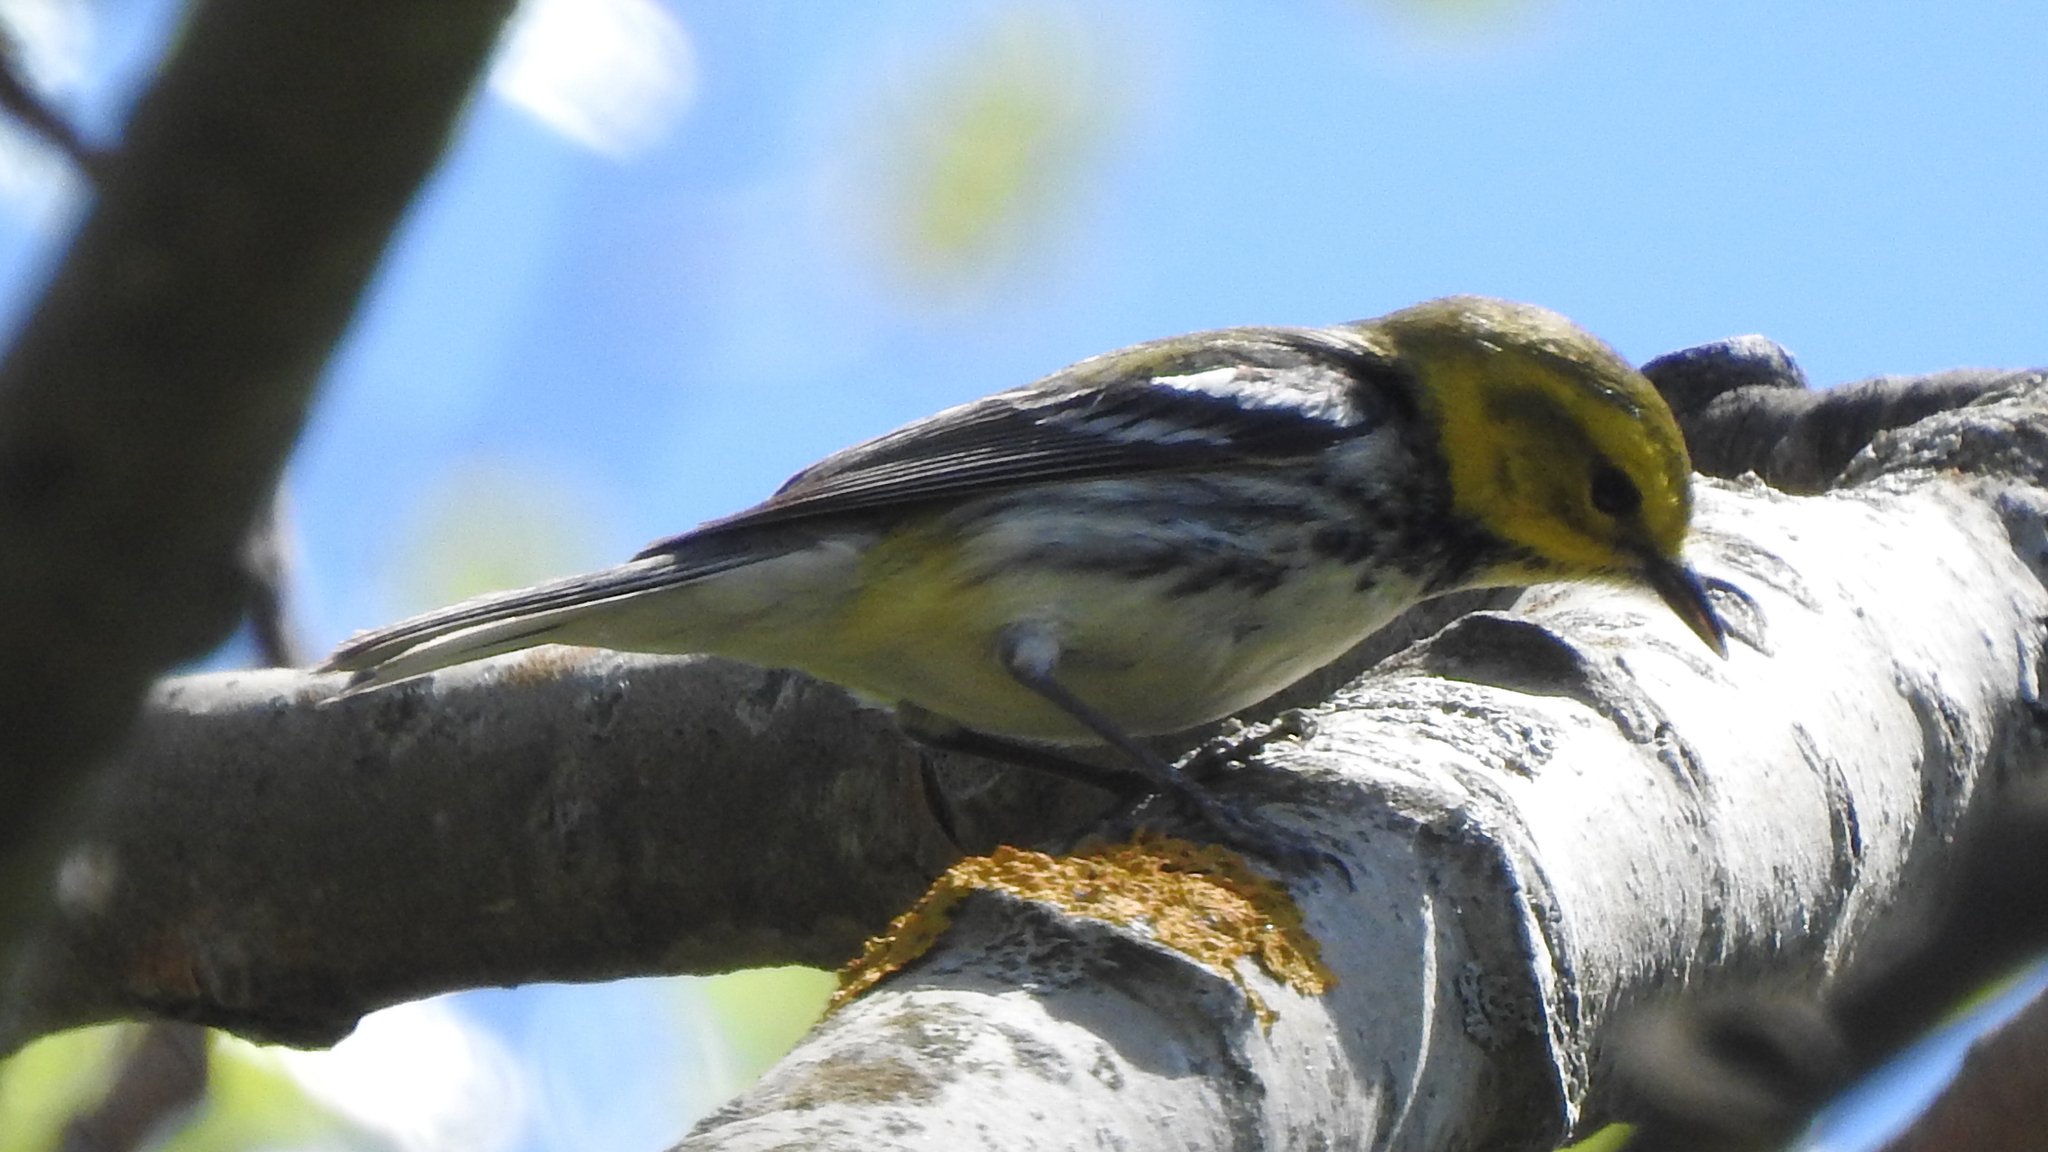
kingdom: Animalia
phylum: Chordata
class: Aves
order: Passeriformes
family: Parulidae
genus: Setophaga
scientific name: Setophaga virens
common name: Black-throated green warbler
